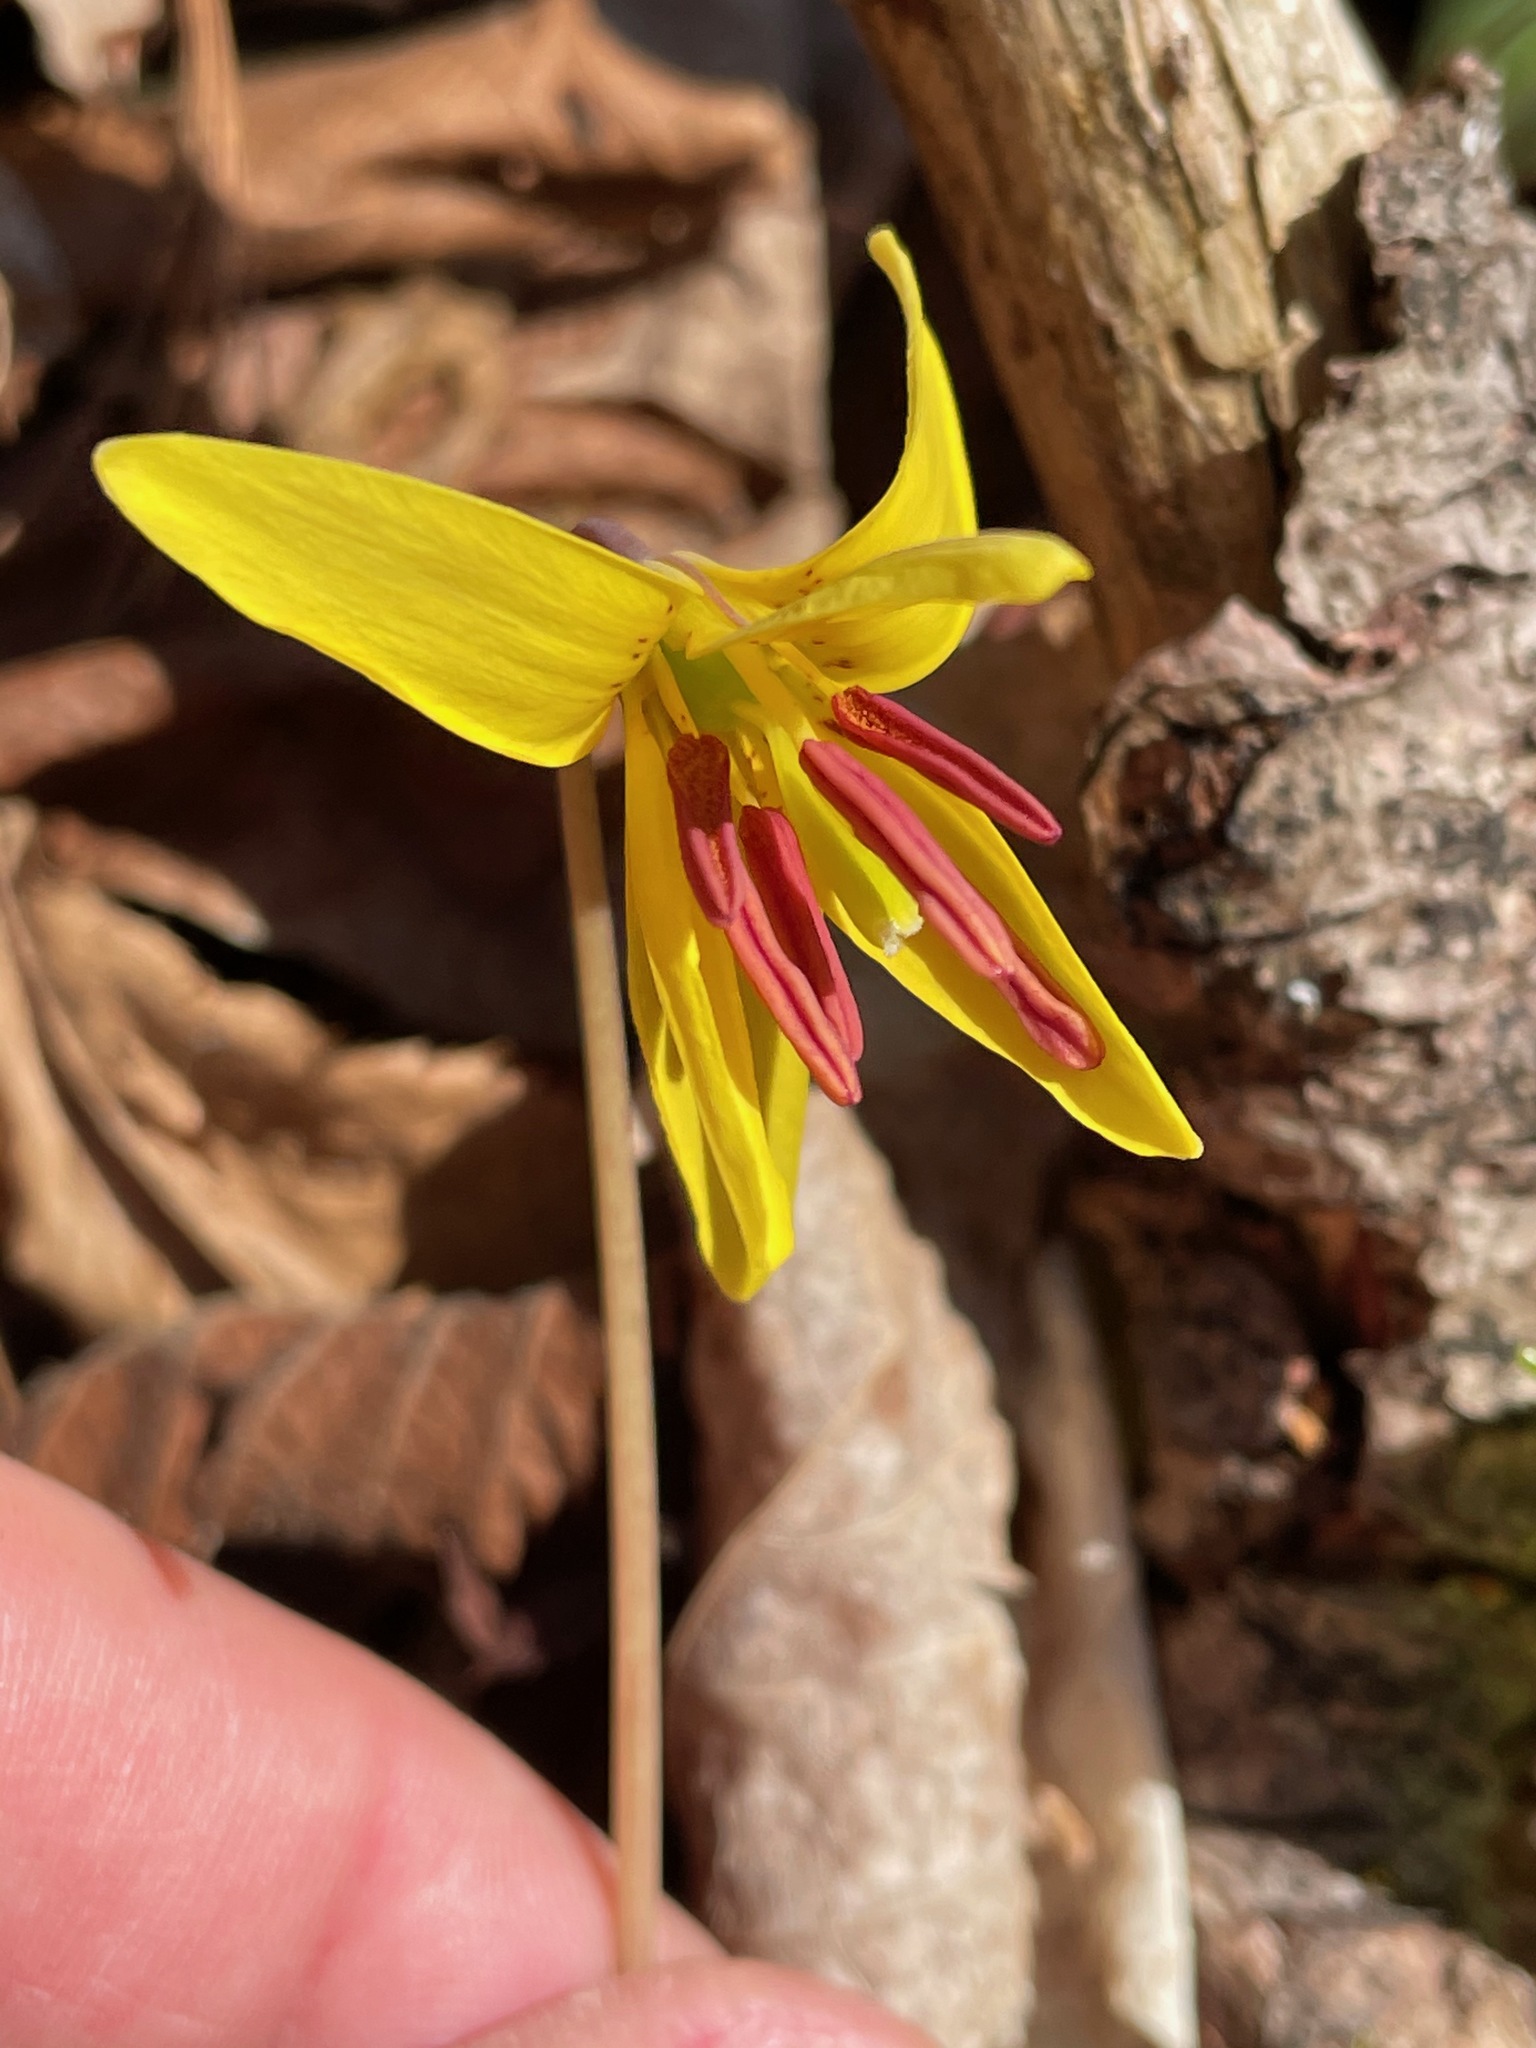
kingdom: Plantae
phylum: Tracheophyta
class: Liliopsida
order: Liliales
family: Liliaceae
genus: Erythronium
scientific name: Erythronium americanum
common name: Yellow adder's-tongue
